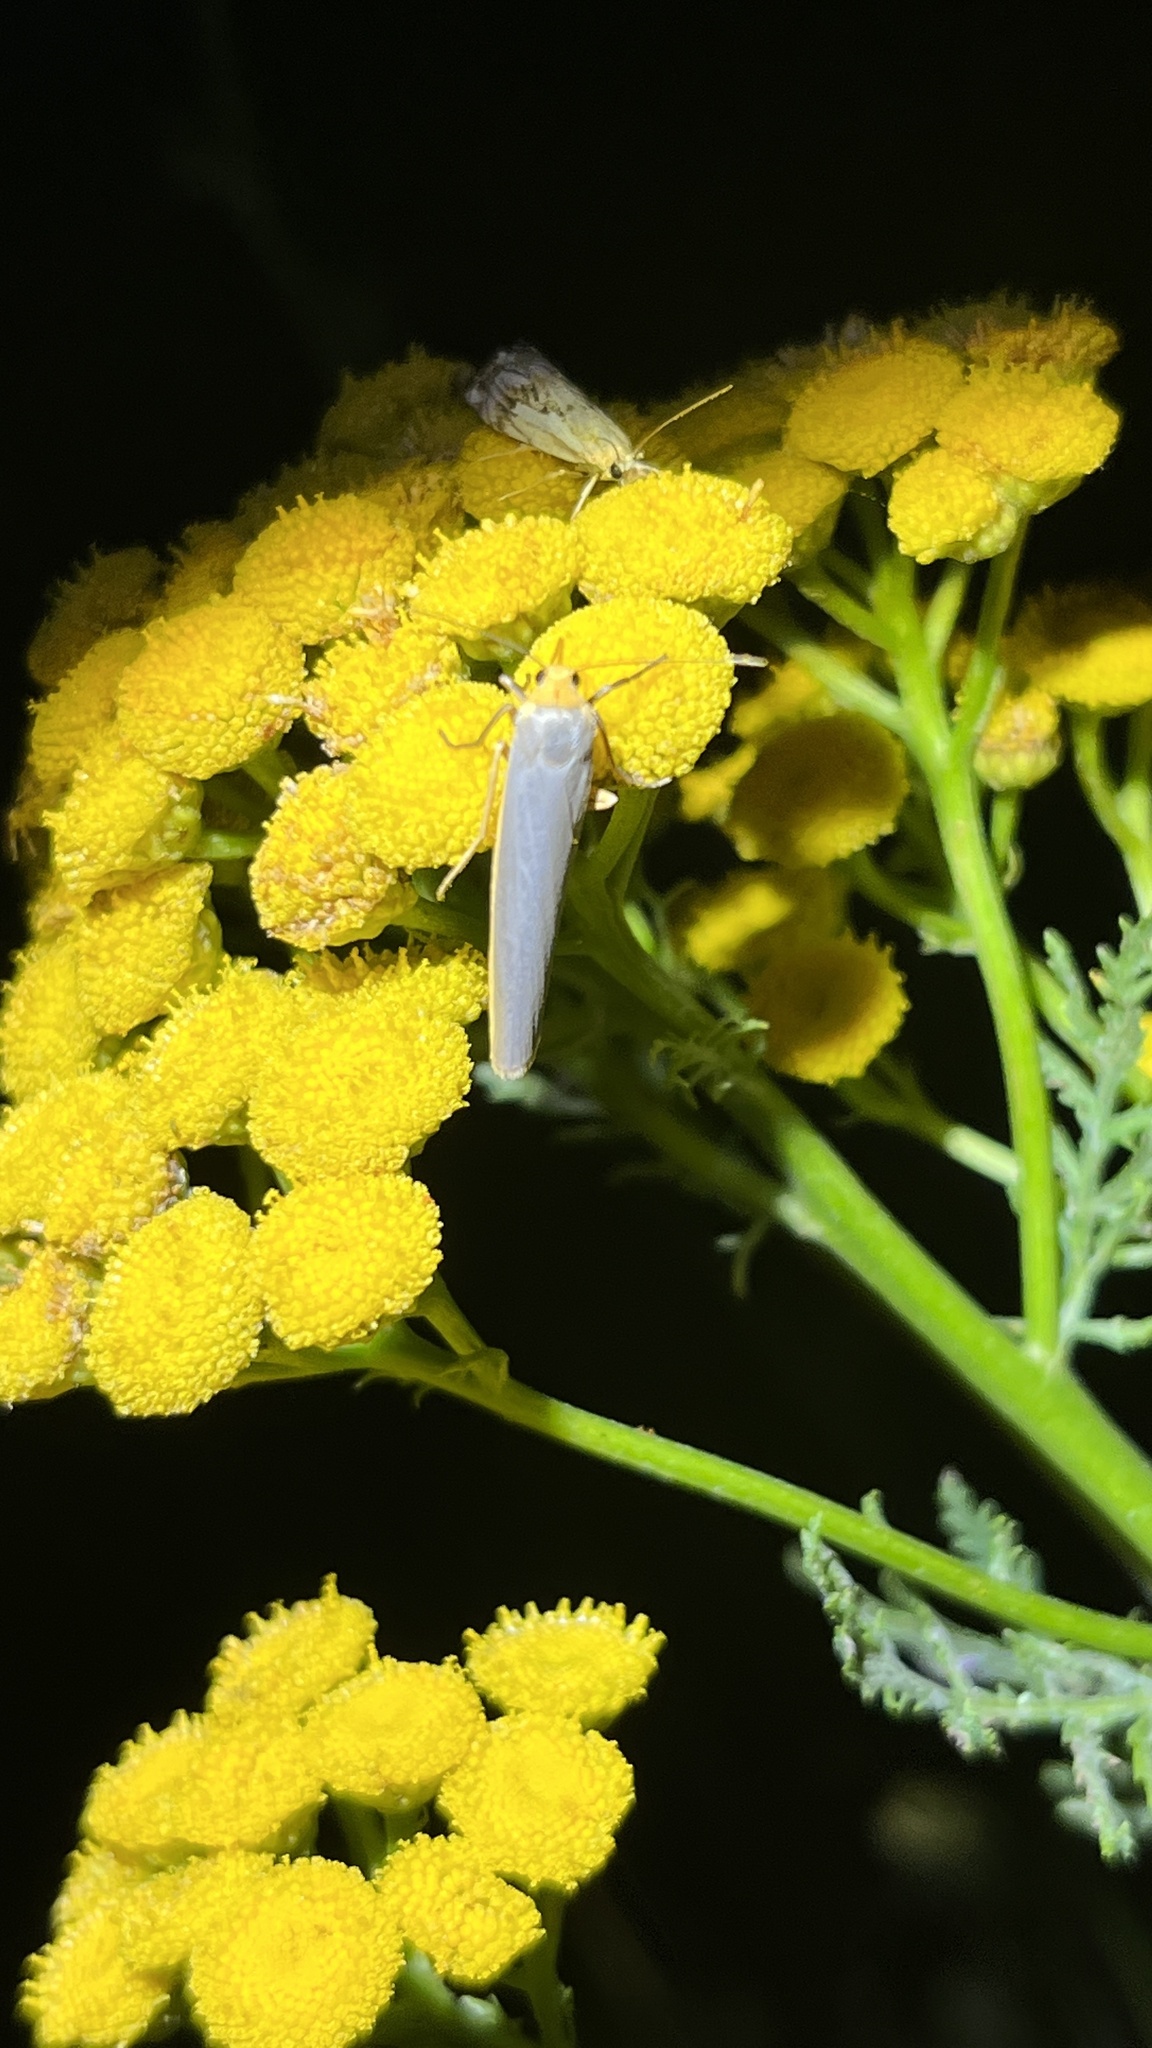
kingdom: Animalia
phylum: Arthropoda
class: Insecta
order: Lepidoptera
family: Erebidae
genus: Manulea
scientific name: Manulea complana
